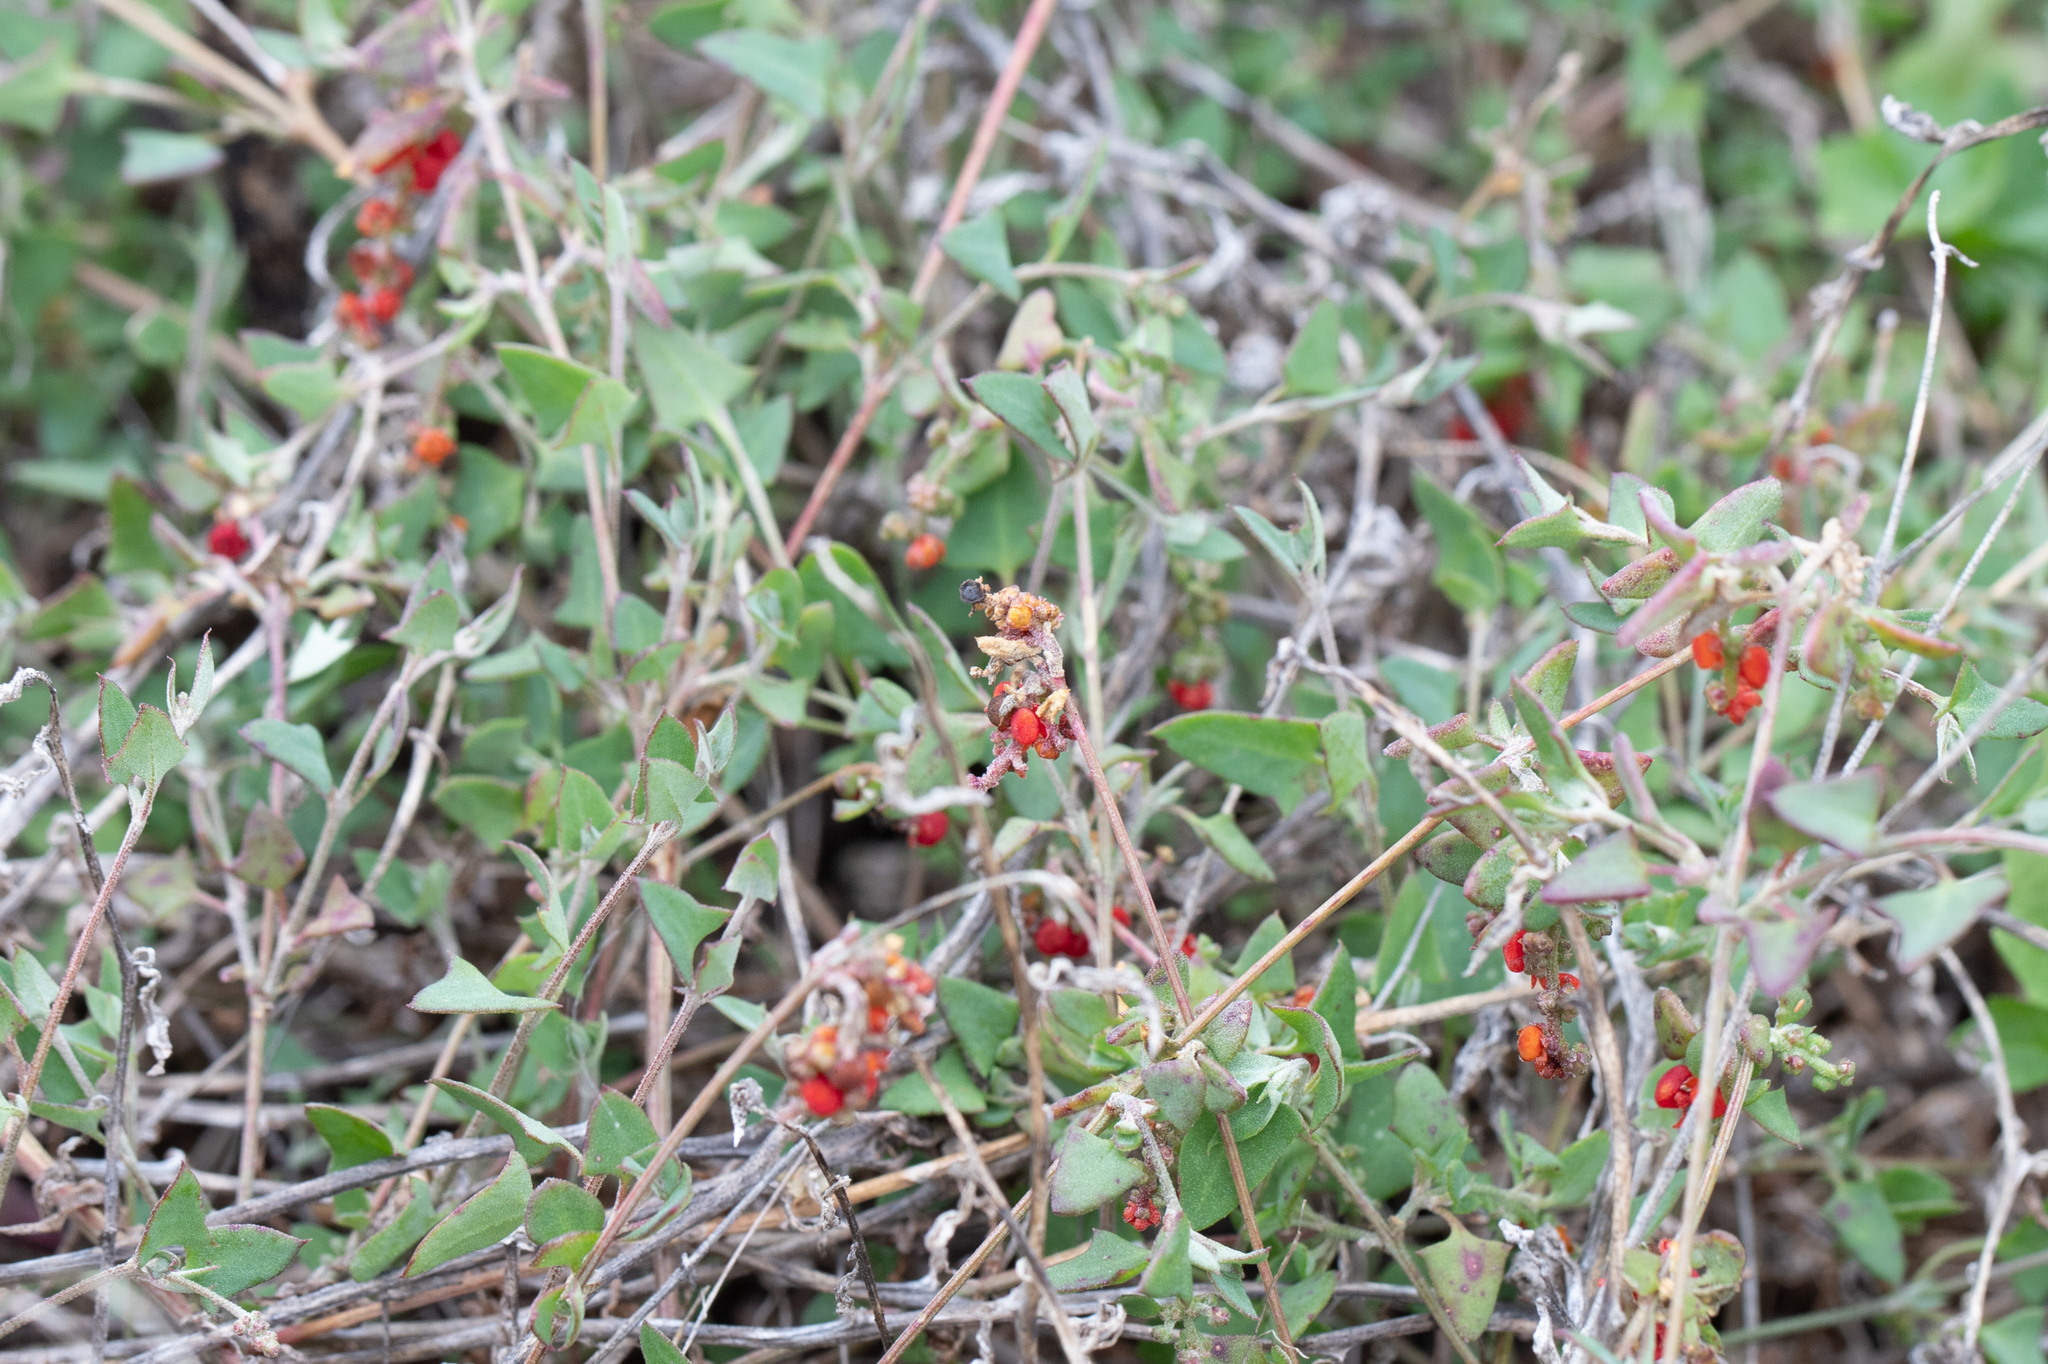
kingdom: Plantae
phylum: Tracheophyta
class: Magnoliopsida
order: Caryophyllales
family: Amaranthaceae
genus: Chenopodium
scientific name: Chenopodium nutans
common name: Climbing-saltbush
